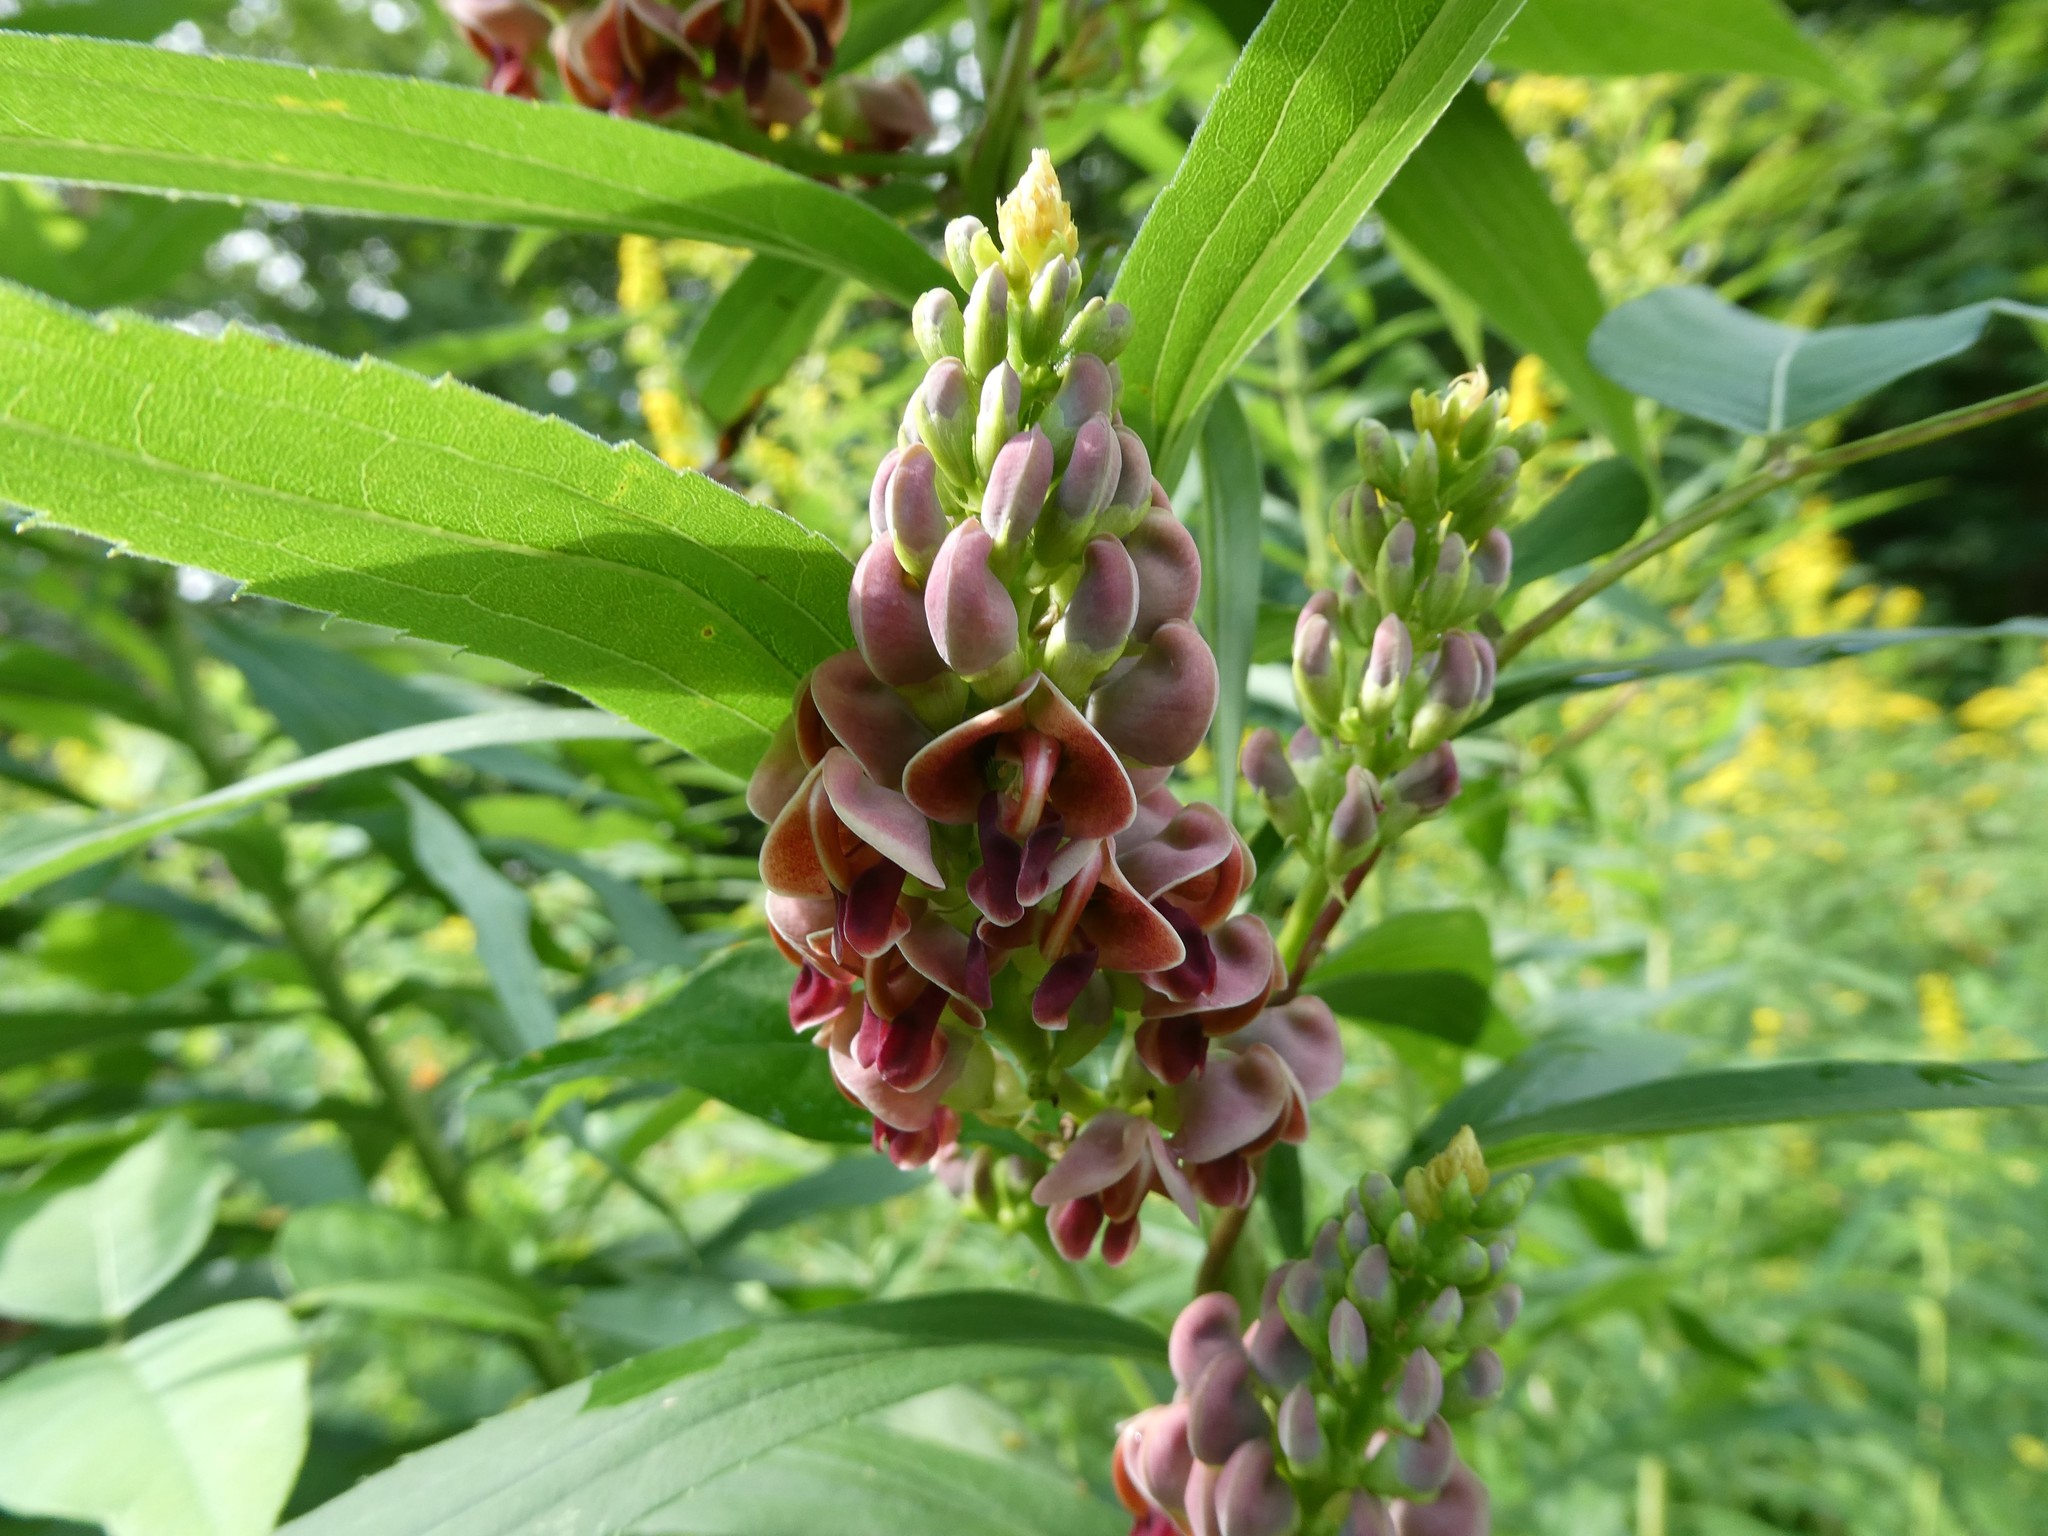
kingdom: Plantae
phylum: Tracheophyta
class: Magnoliopsida
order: Fabales
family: Fabaceae
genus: Apios
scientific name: Apios americana
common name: American potato-bean
